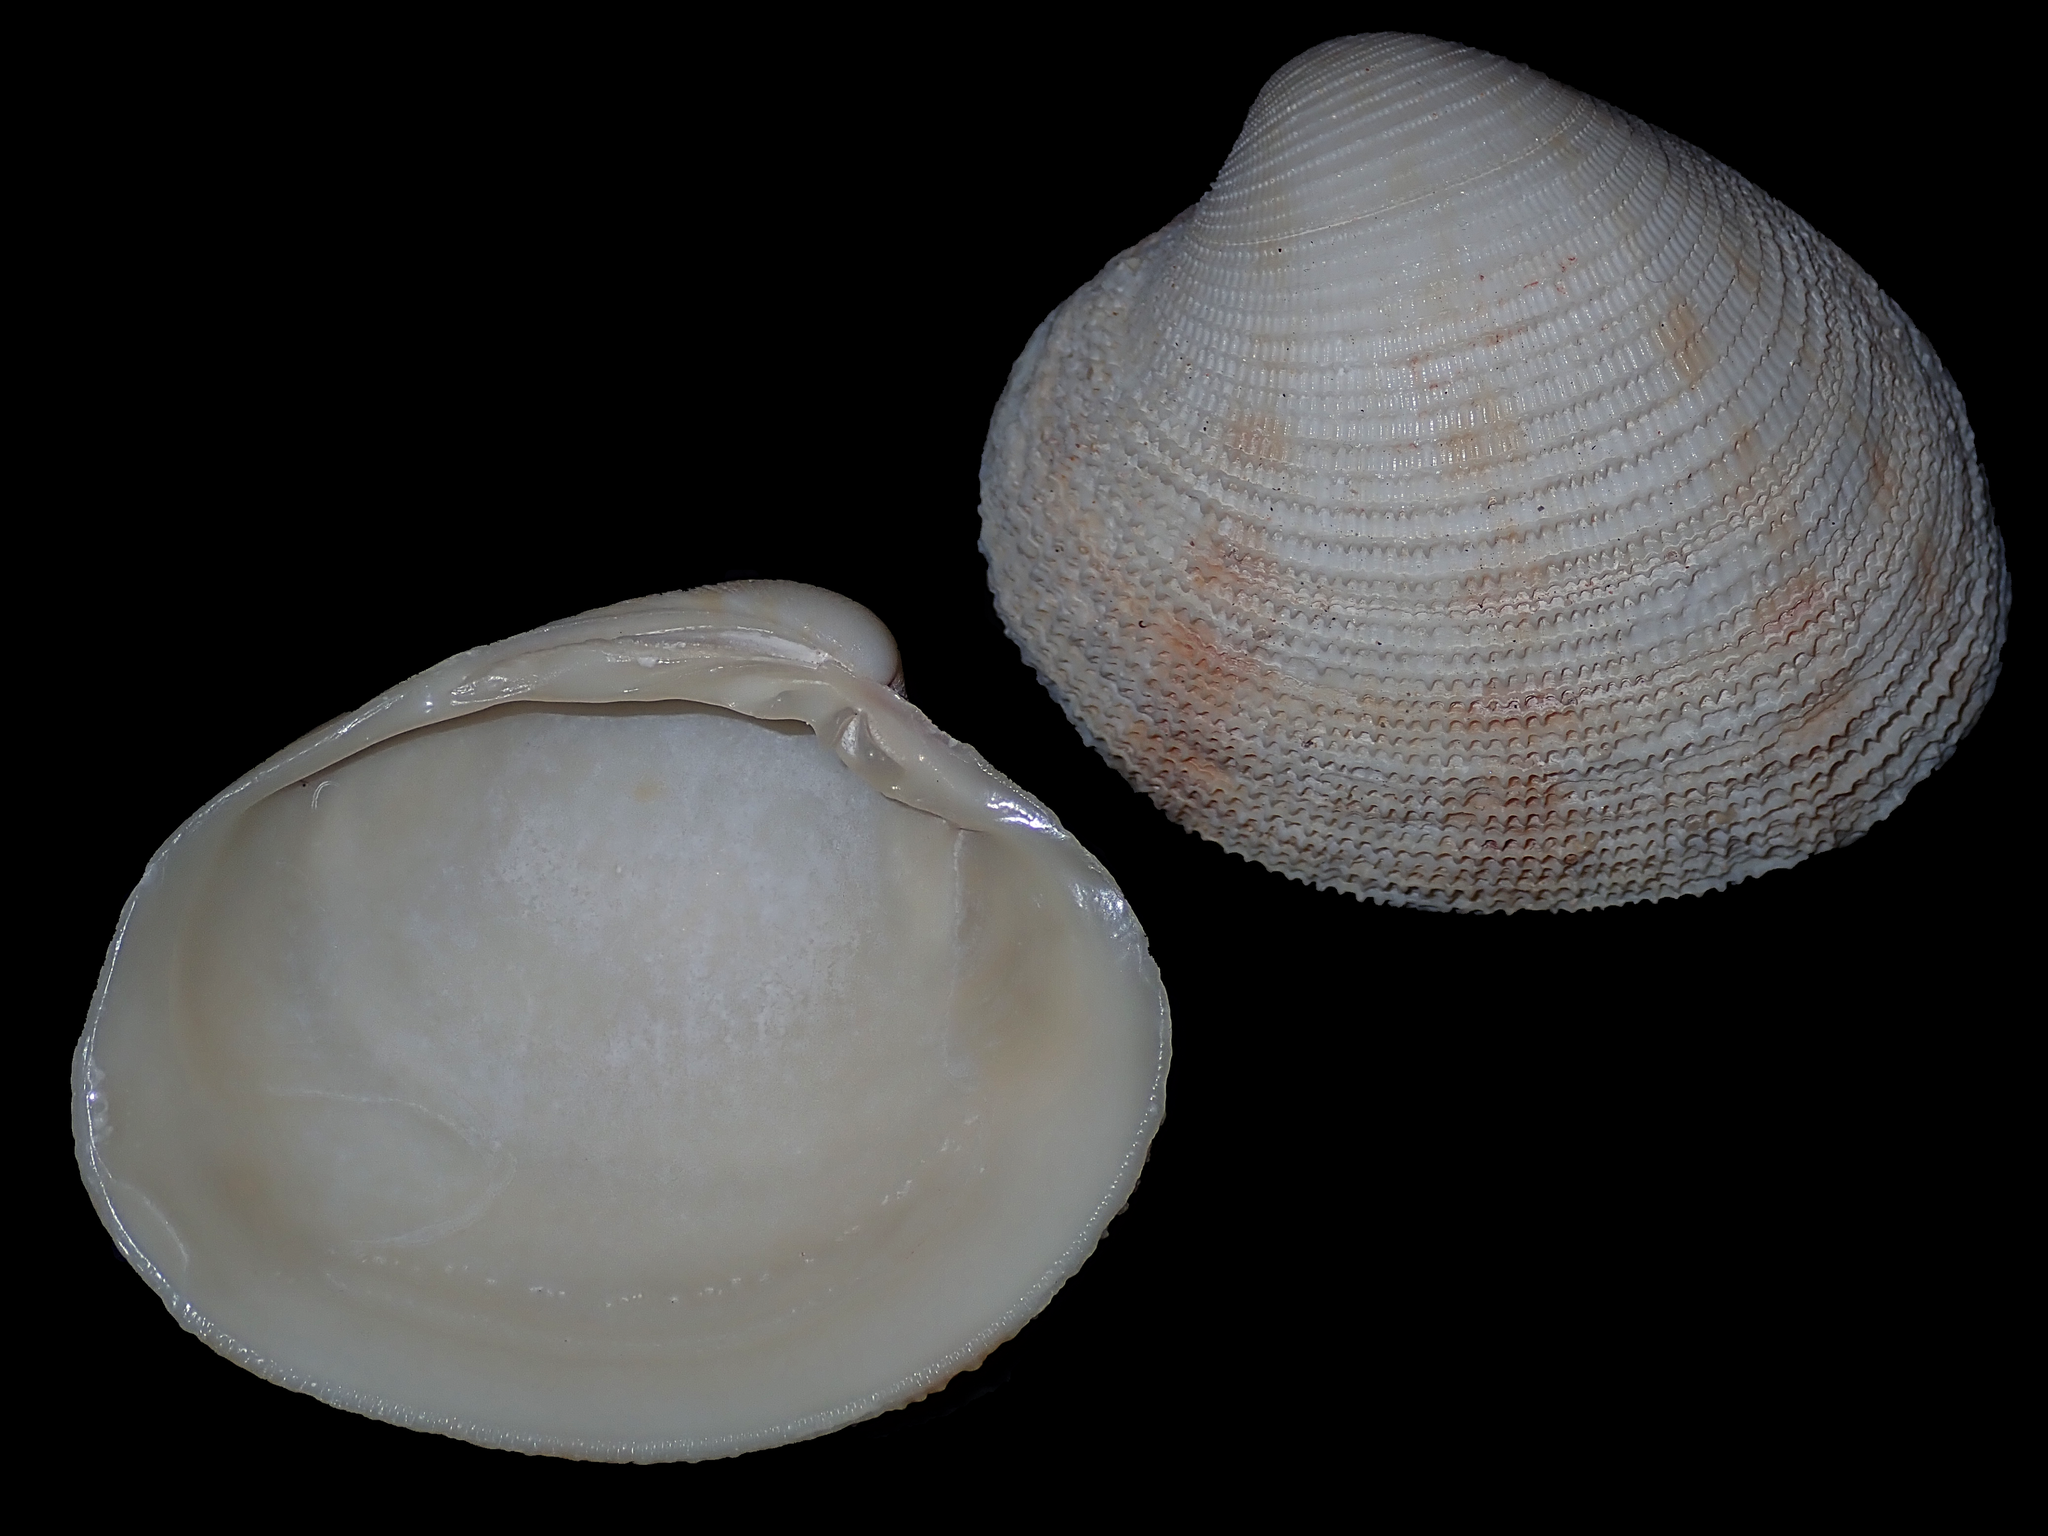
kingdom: Animalia
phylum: Mollusca
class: Bivalvia
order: Venerida
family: Veneridae
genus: Antigona
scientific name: Antigona laqueata
